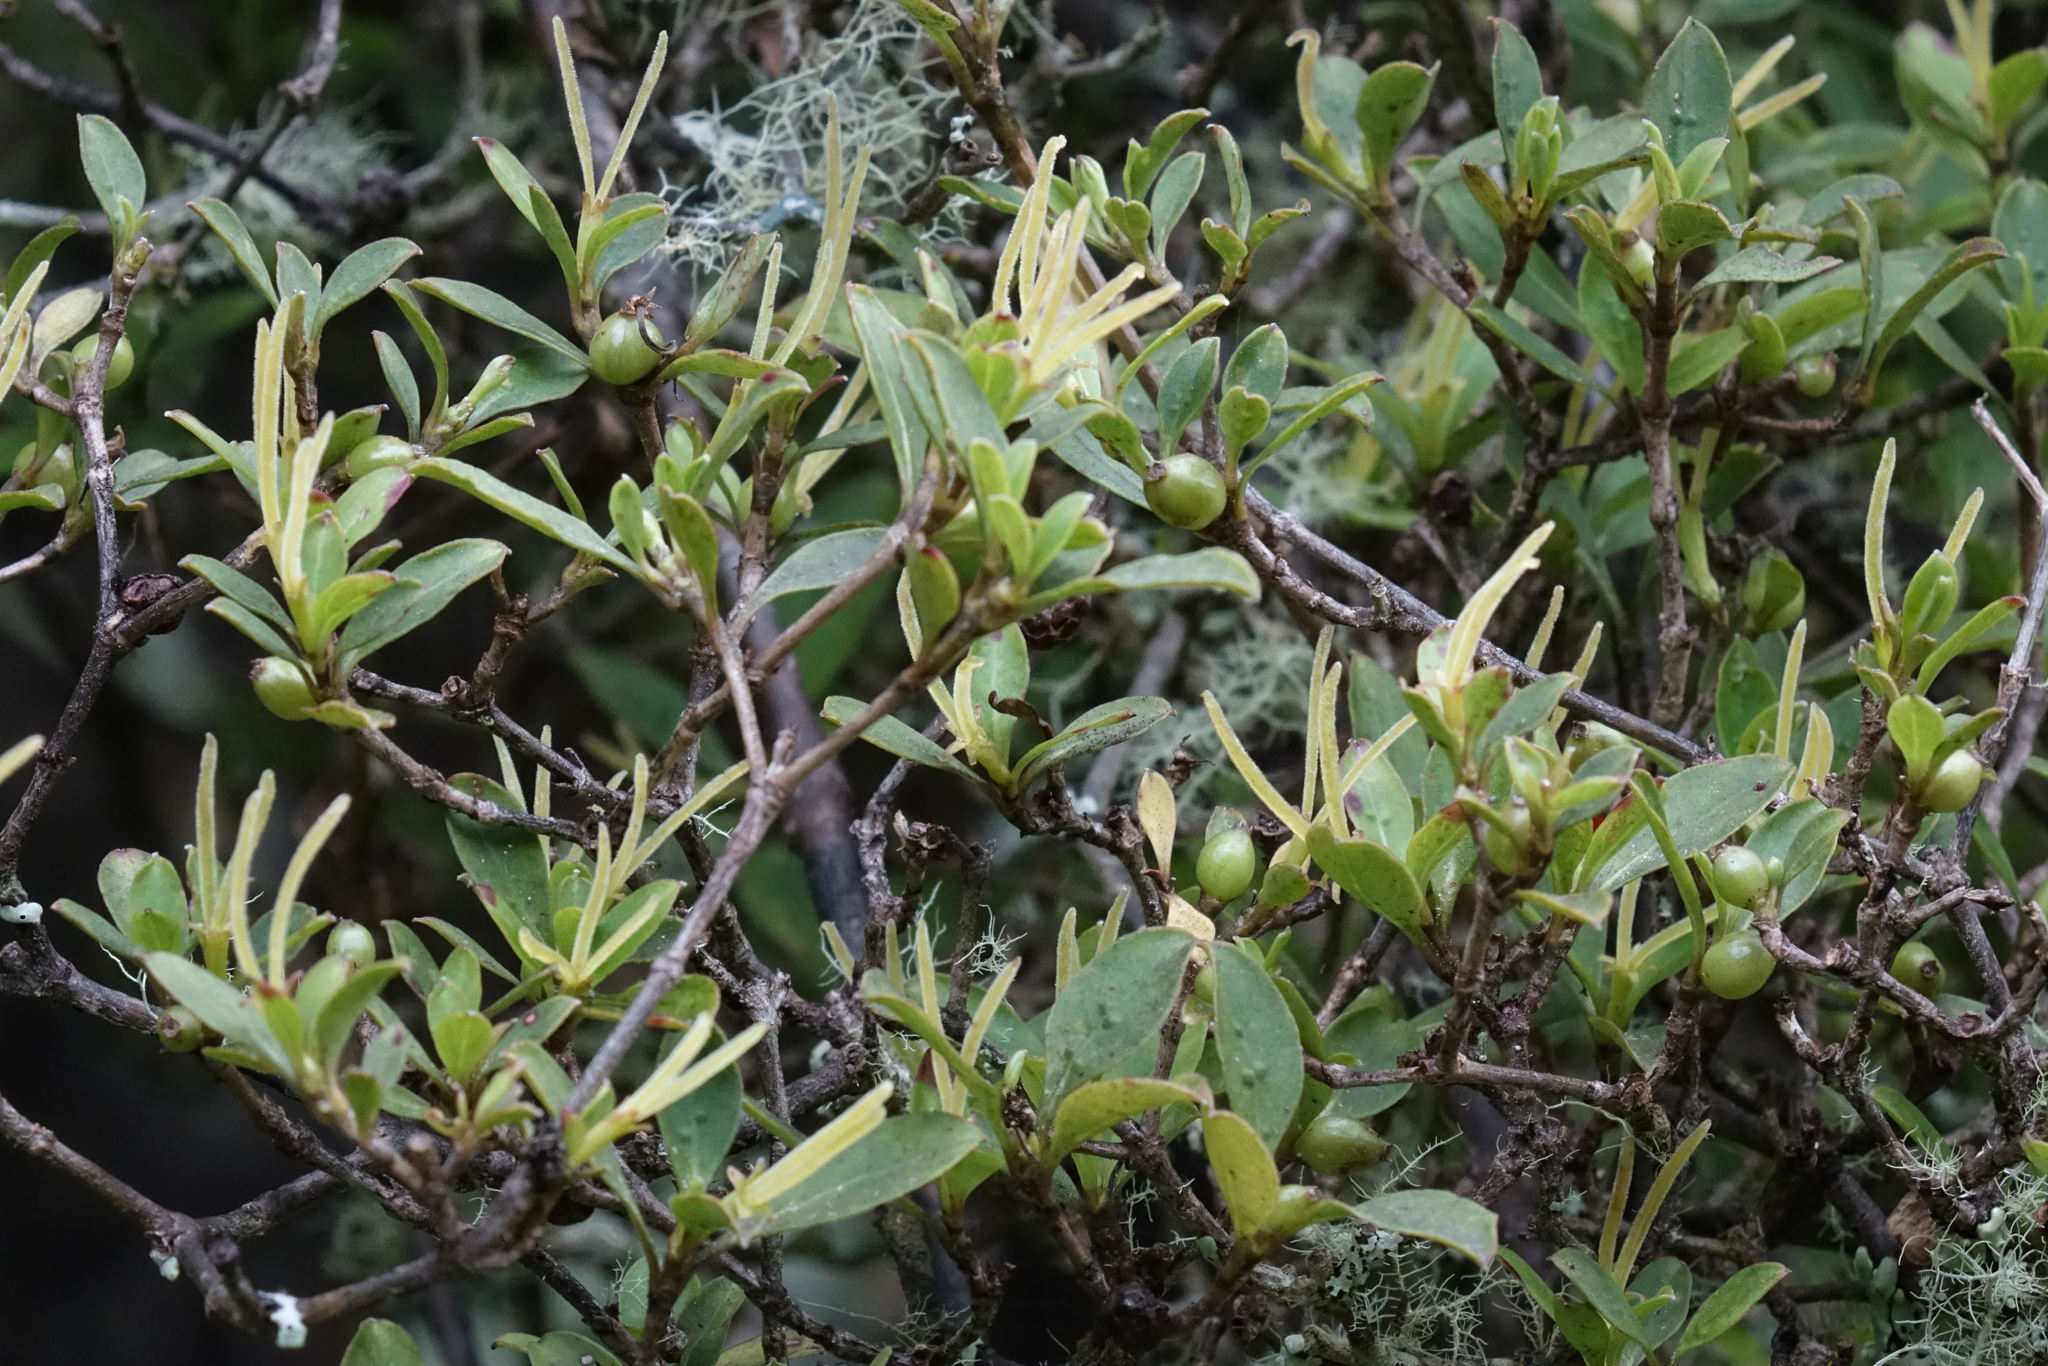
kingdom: Plantae
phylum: Tracheophyta
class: Magnoliopsida
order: Gentianales
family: Rubiaceae
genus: Coprosma
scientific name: Coprosma foetidissima
